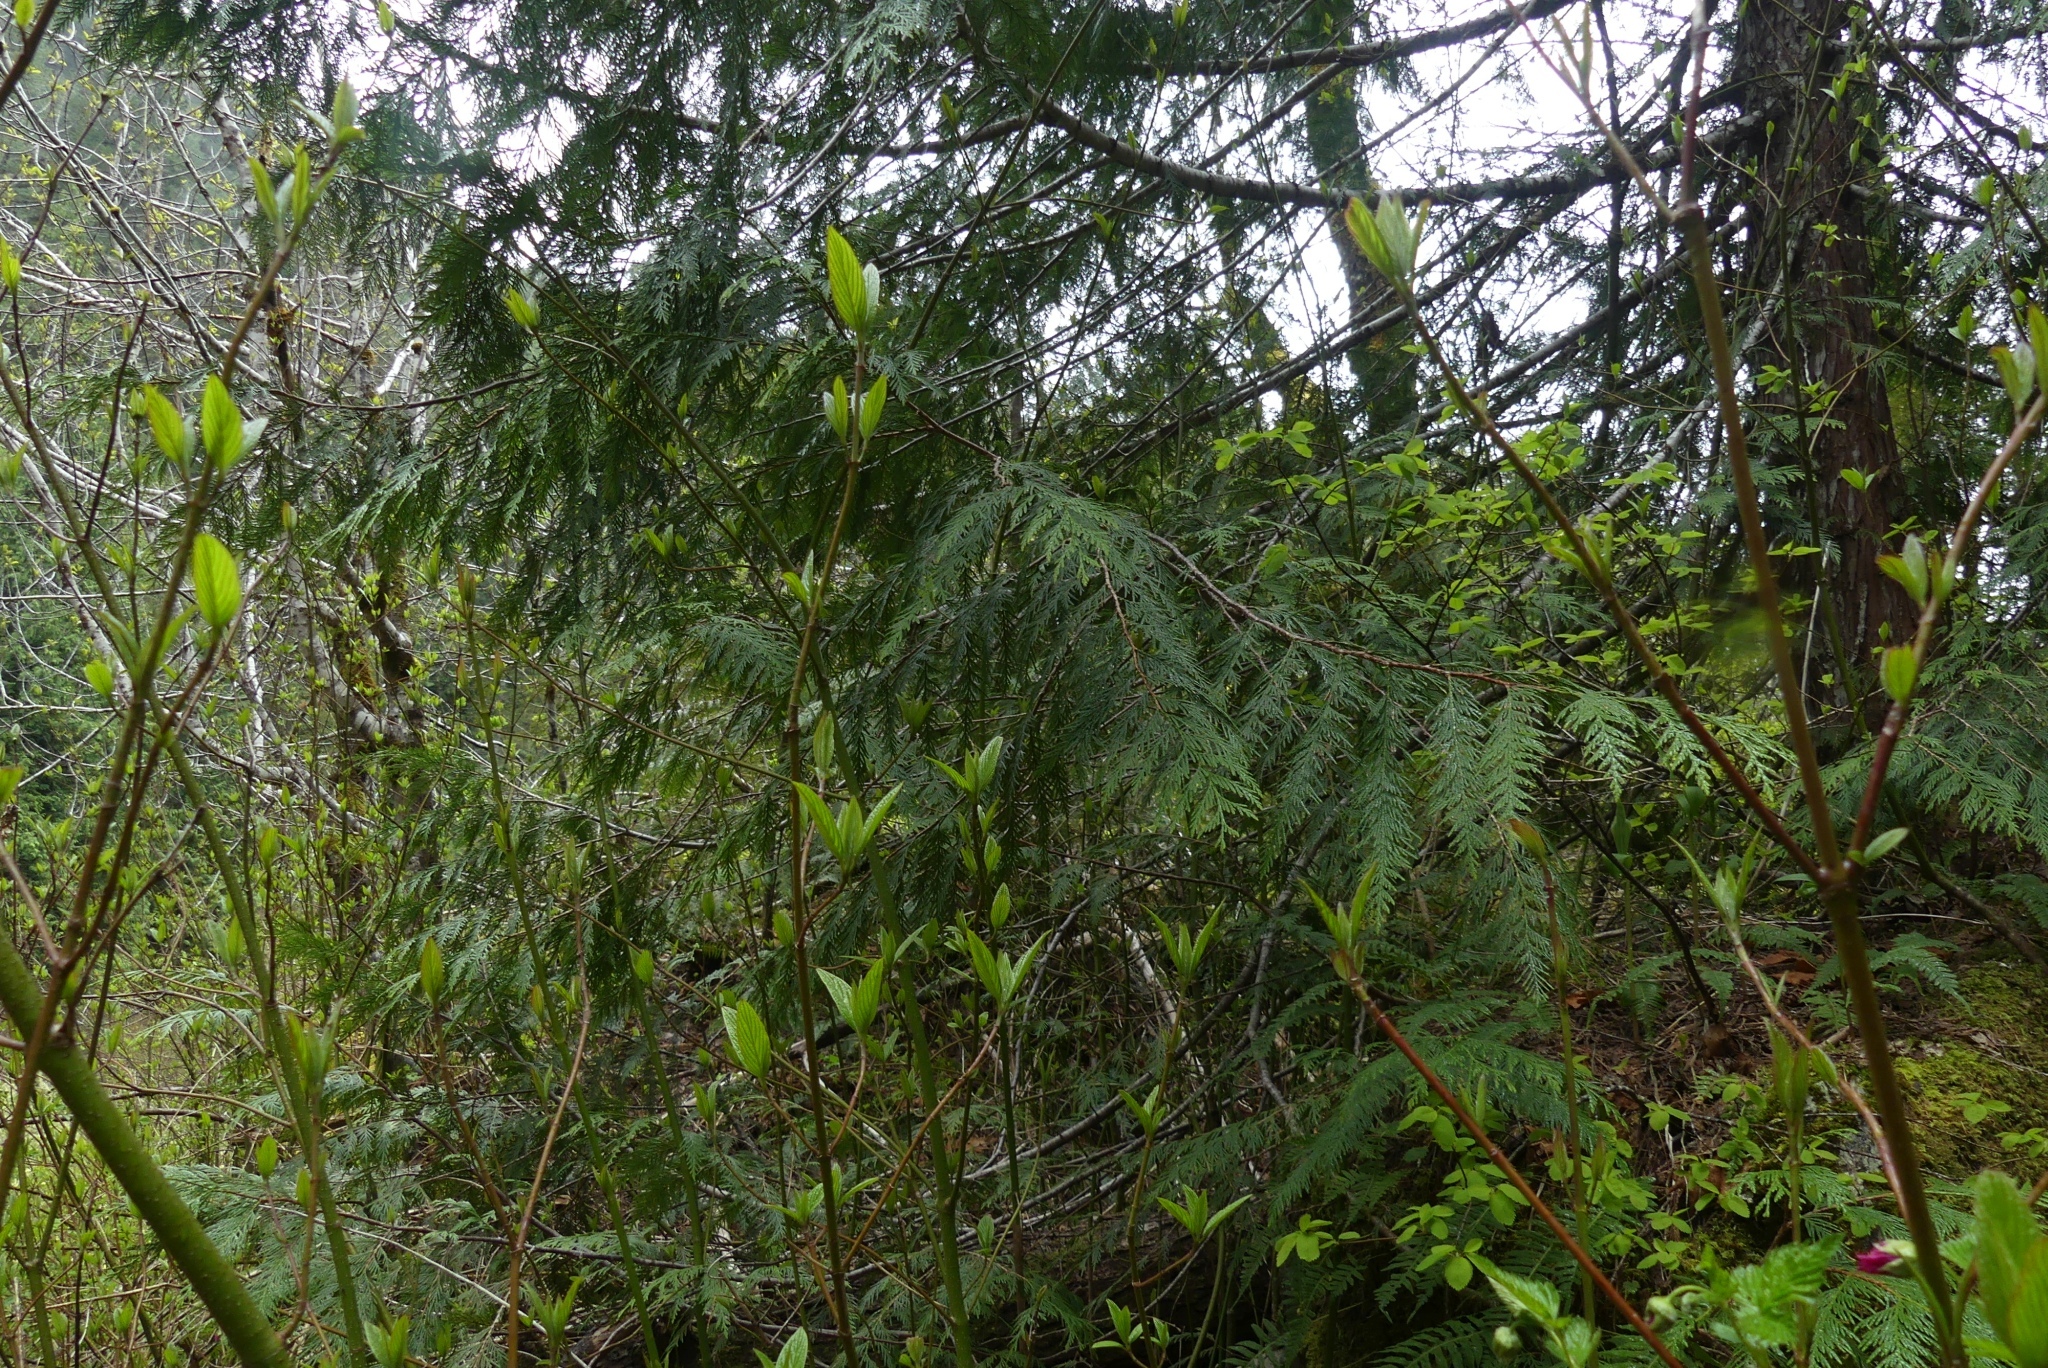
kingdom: Plantae
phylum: Tracheophyta
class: Pinopsida
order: Pinales
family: Cupressaceae
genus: Thuja
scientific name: Thuja plicata
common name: Western red-cedar
